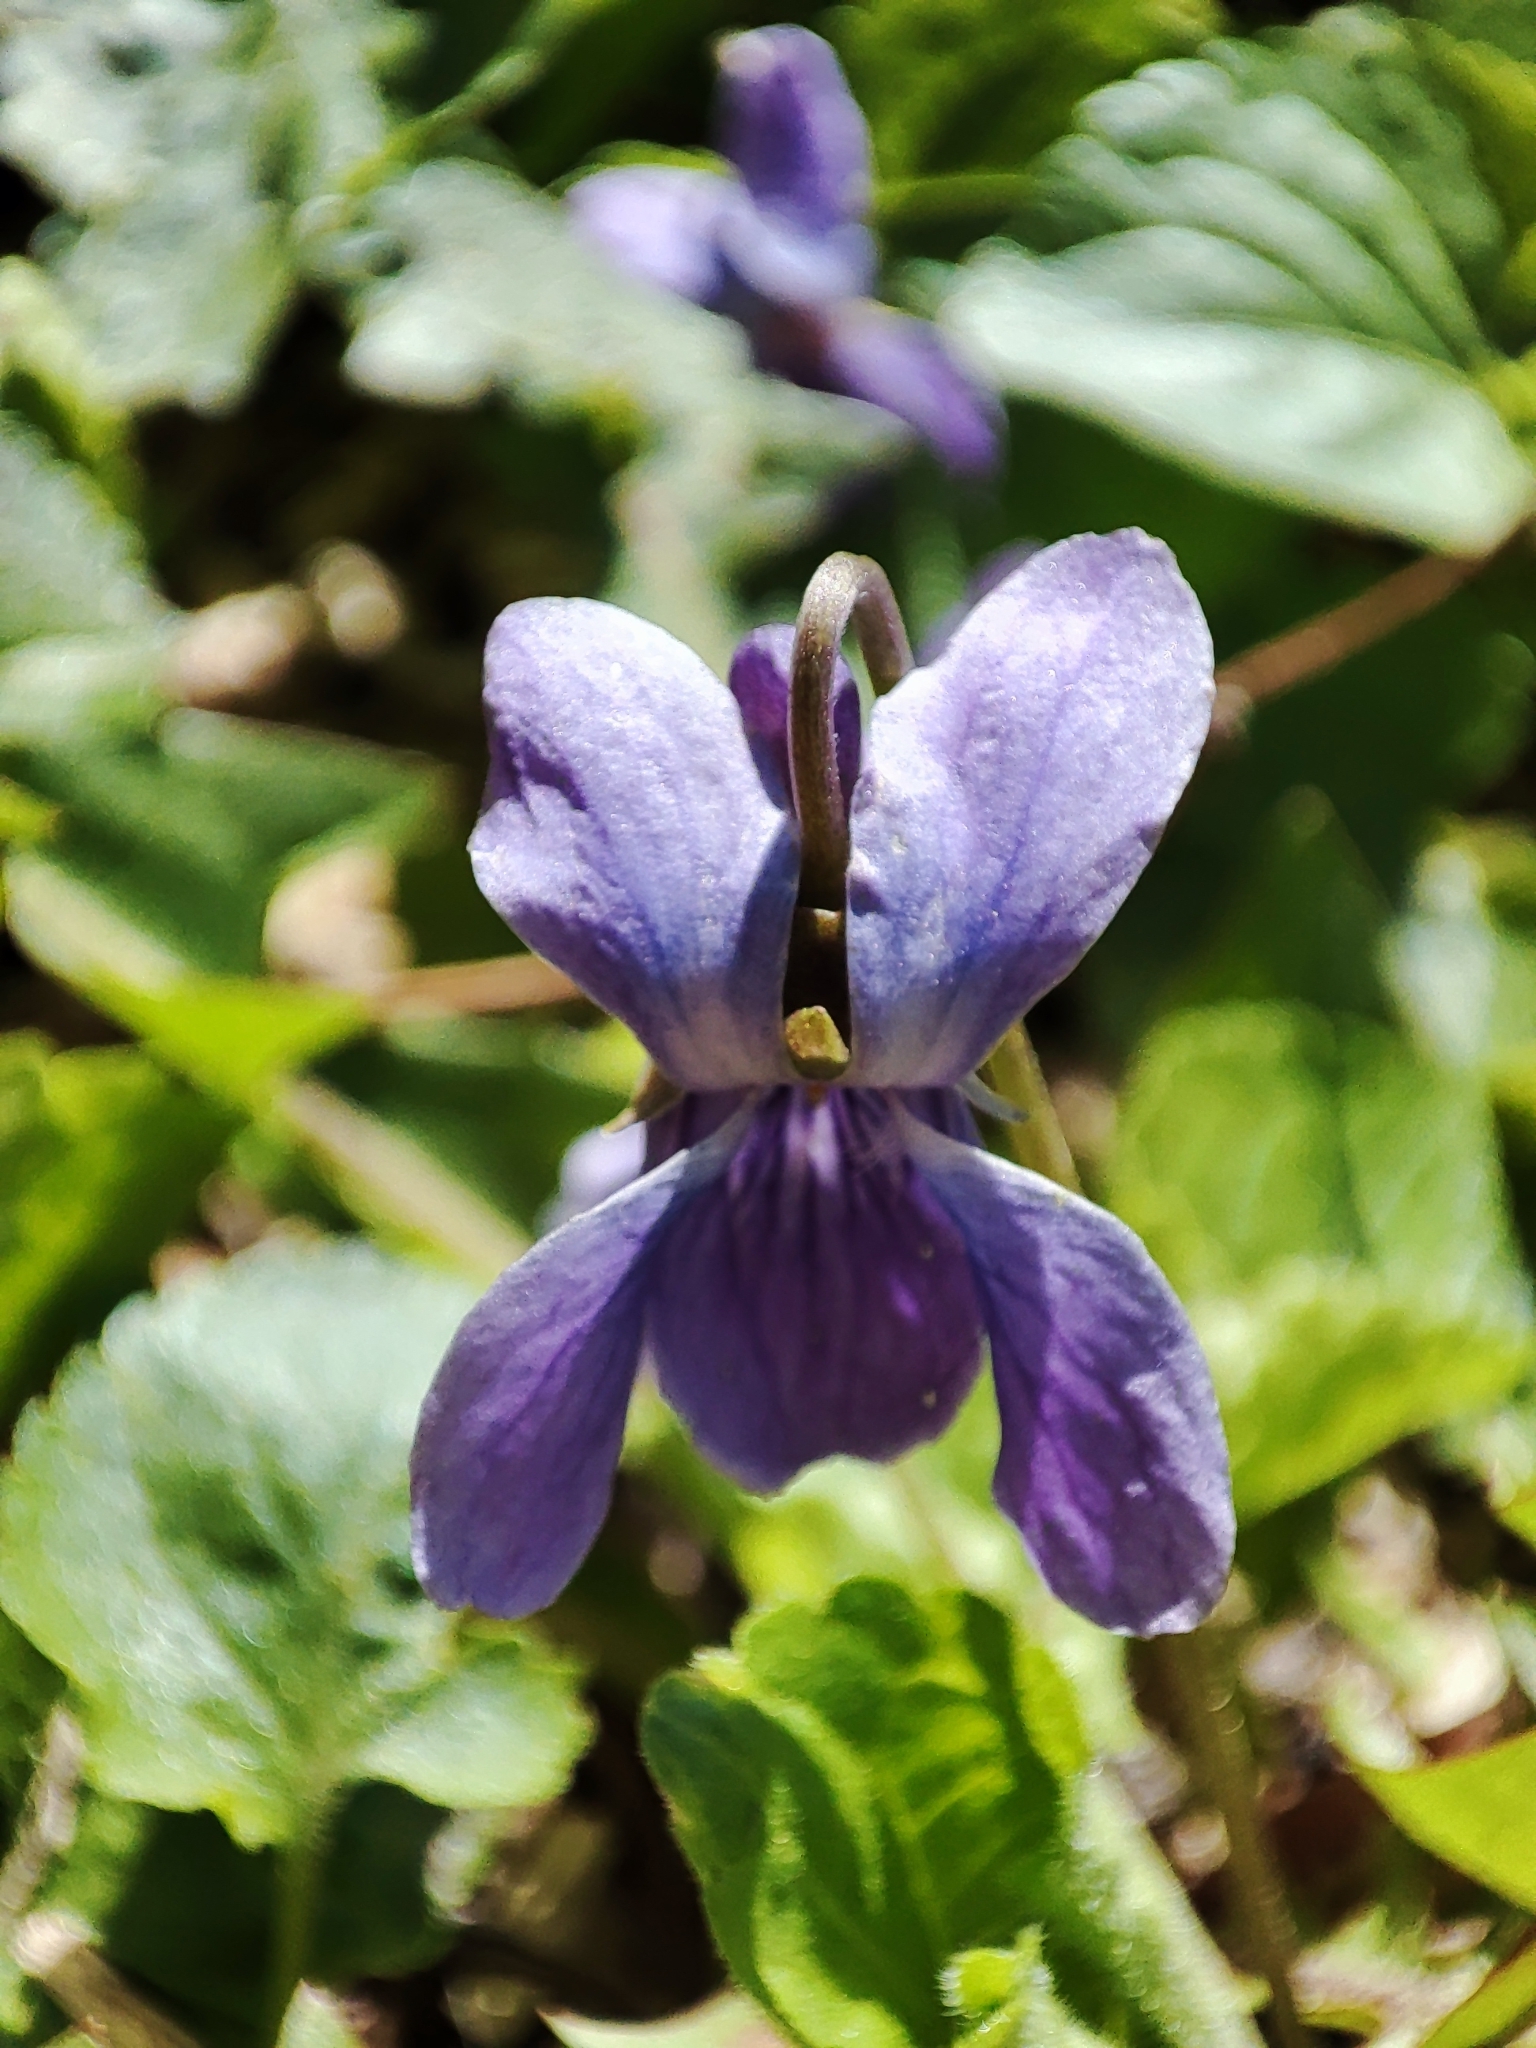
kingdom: Plantae
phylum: Tracheophyta
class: Magnoliopsida
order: Malpighiales
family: Violaceae
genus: Viola
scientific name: Viola odorata
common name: Sweet violet
